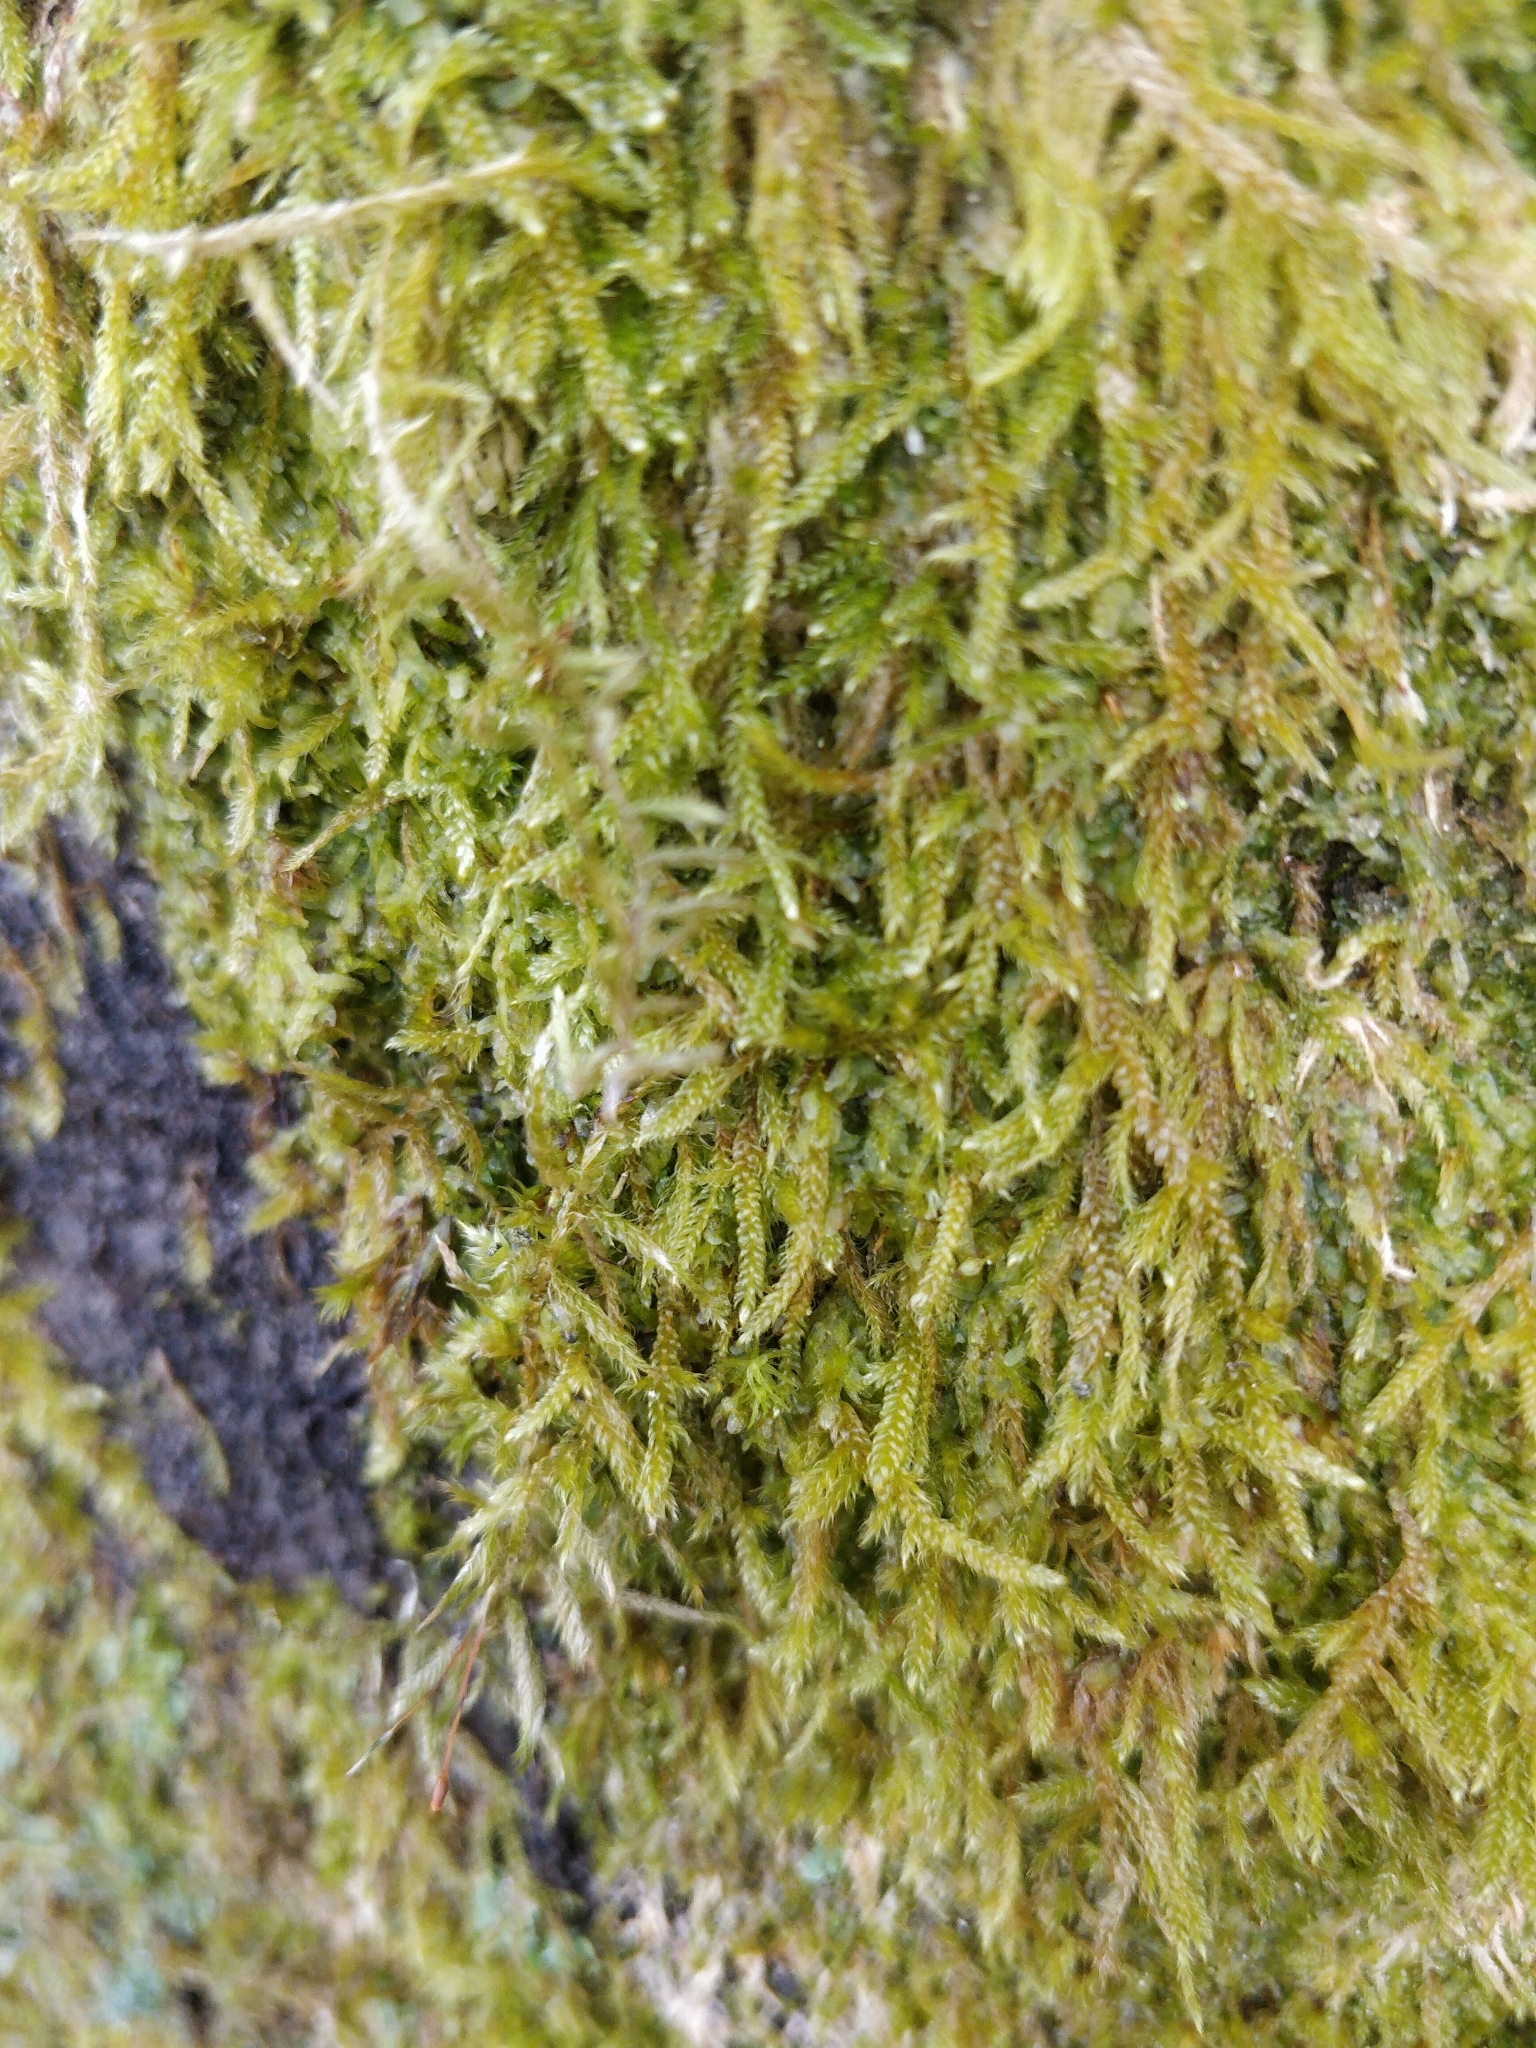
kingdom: Plantae
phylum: Bryophyta
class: Bryopsida
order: Hypnales
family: Hypnaceae
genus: Hypnum
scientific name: Hypnum cupressiforme
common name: Cypress-leaved plait-moss
